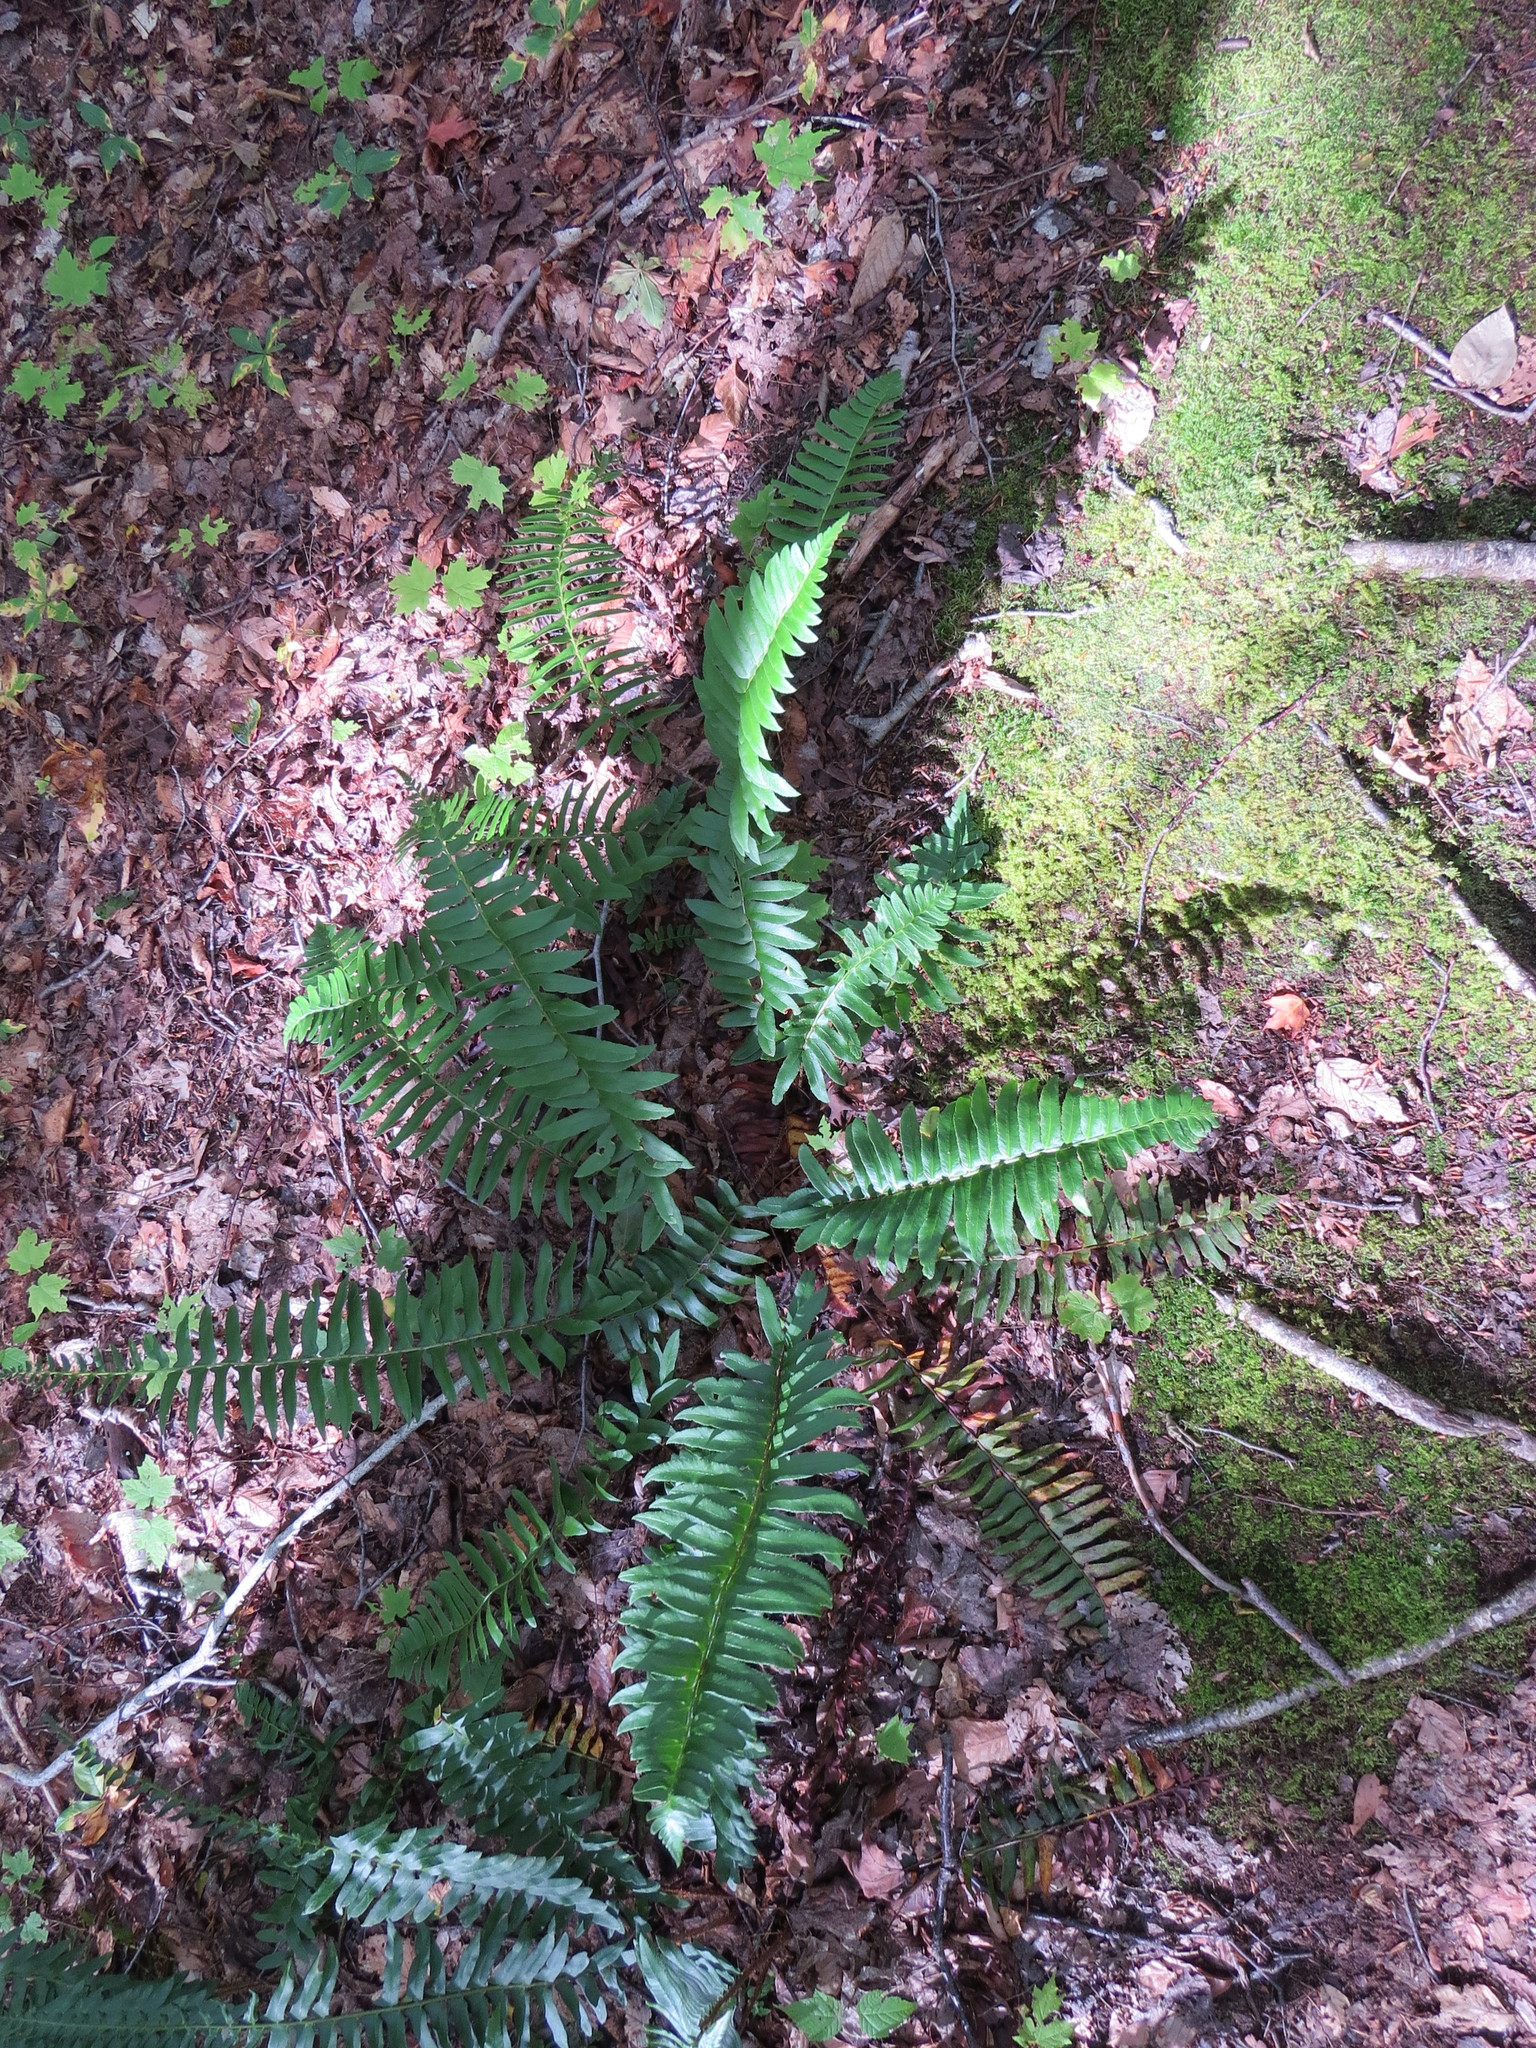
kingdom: Plantae
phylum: Tracheophyta
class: Polypodiopsida
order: Polypodiales
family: Dryopteridaceae
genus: Polystichum
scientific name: Polystichum acrostichoides
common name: Christmas fern
